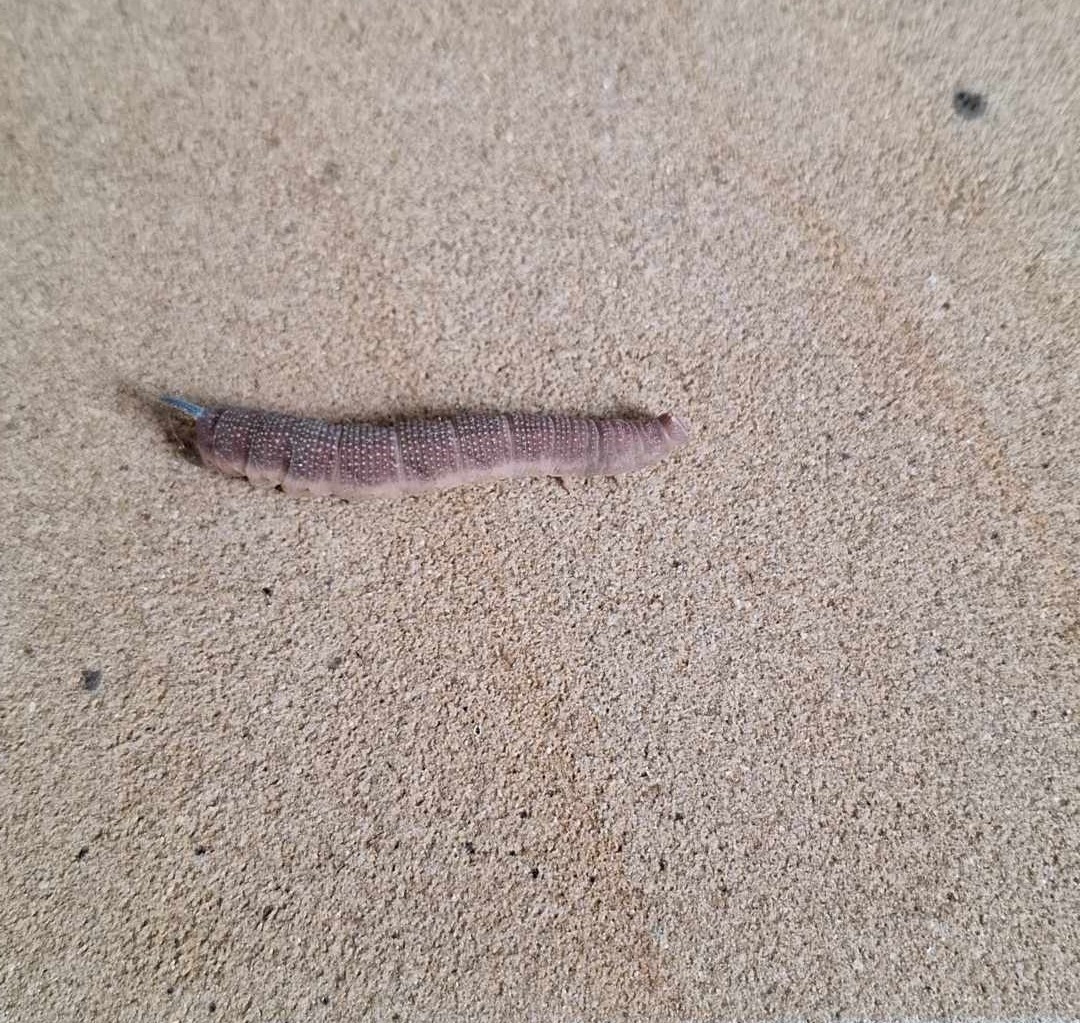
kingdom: Animalia
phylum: Arthropoda
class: Insecta
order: Lepidoptera
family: Sphingidae
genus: Mimas
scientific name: Mimas tiliae
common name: Lime hawk-moth
